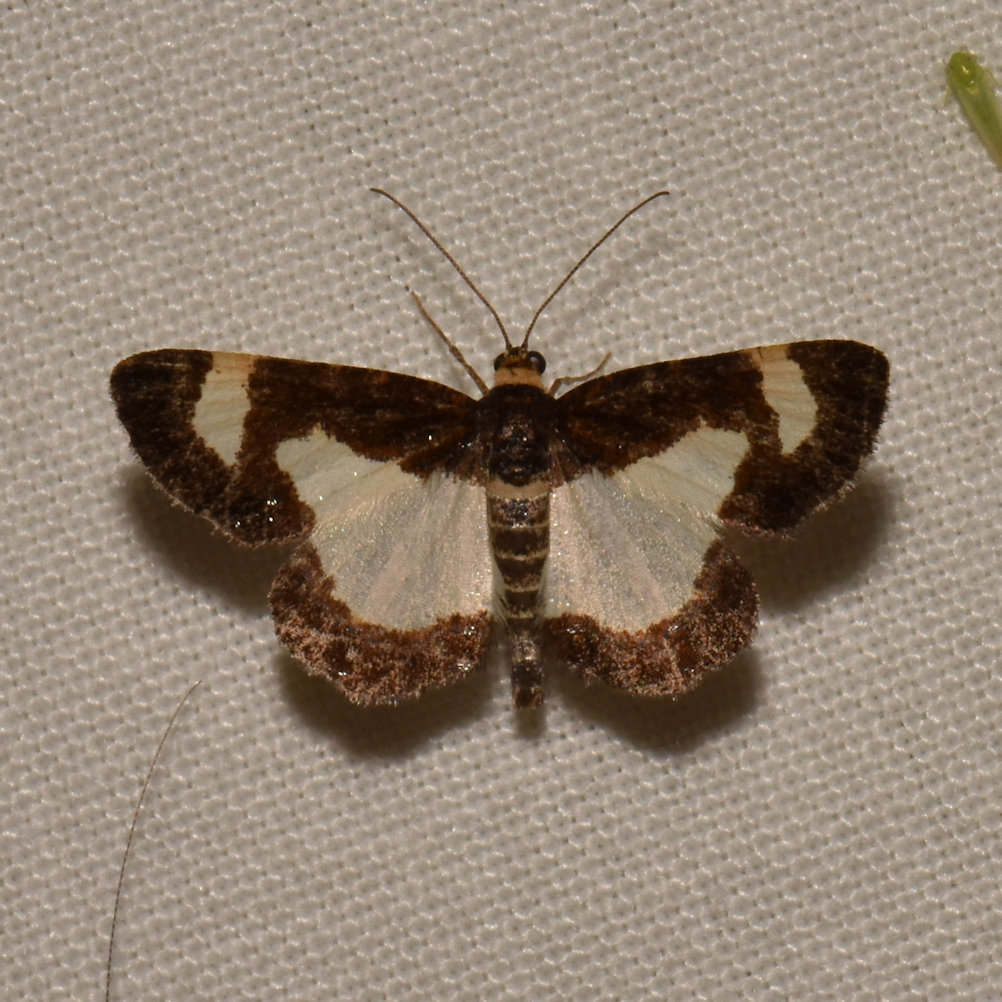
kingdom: Animalia
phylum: Arthropoda
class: Insecta
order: Lepidoptera
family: Geometridae
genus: Heliomata
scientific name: Heliomata cycladata
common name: Common spring moth
